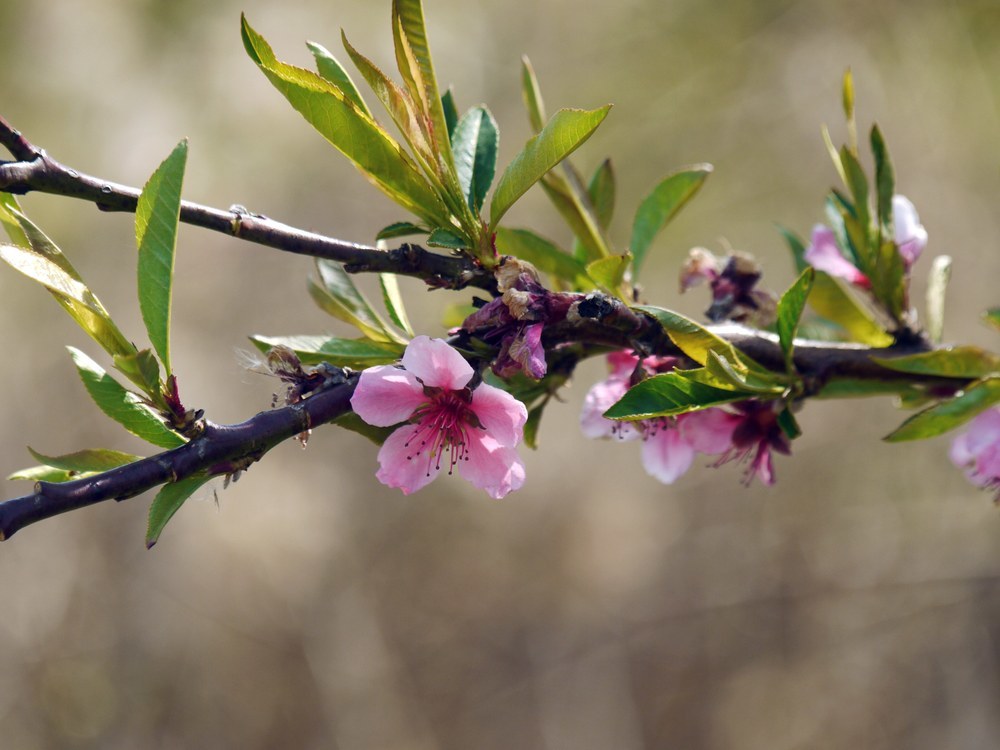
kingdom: Plantae
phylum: Tracheophyta
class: Magnoliopsida
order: Rosales
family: Rosaceae
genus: Prunus
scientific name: Prunus persica
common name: Peach
